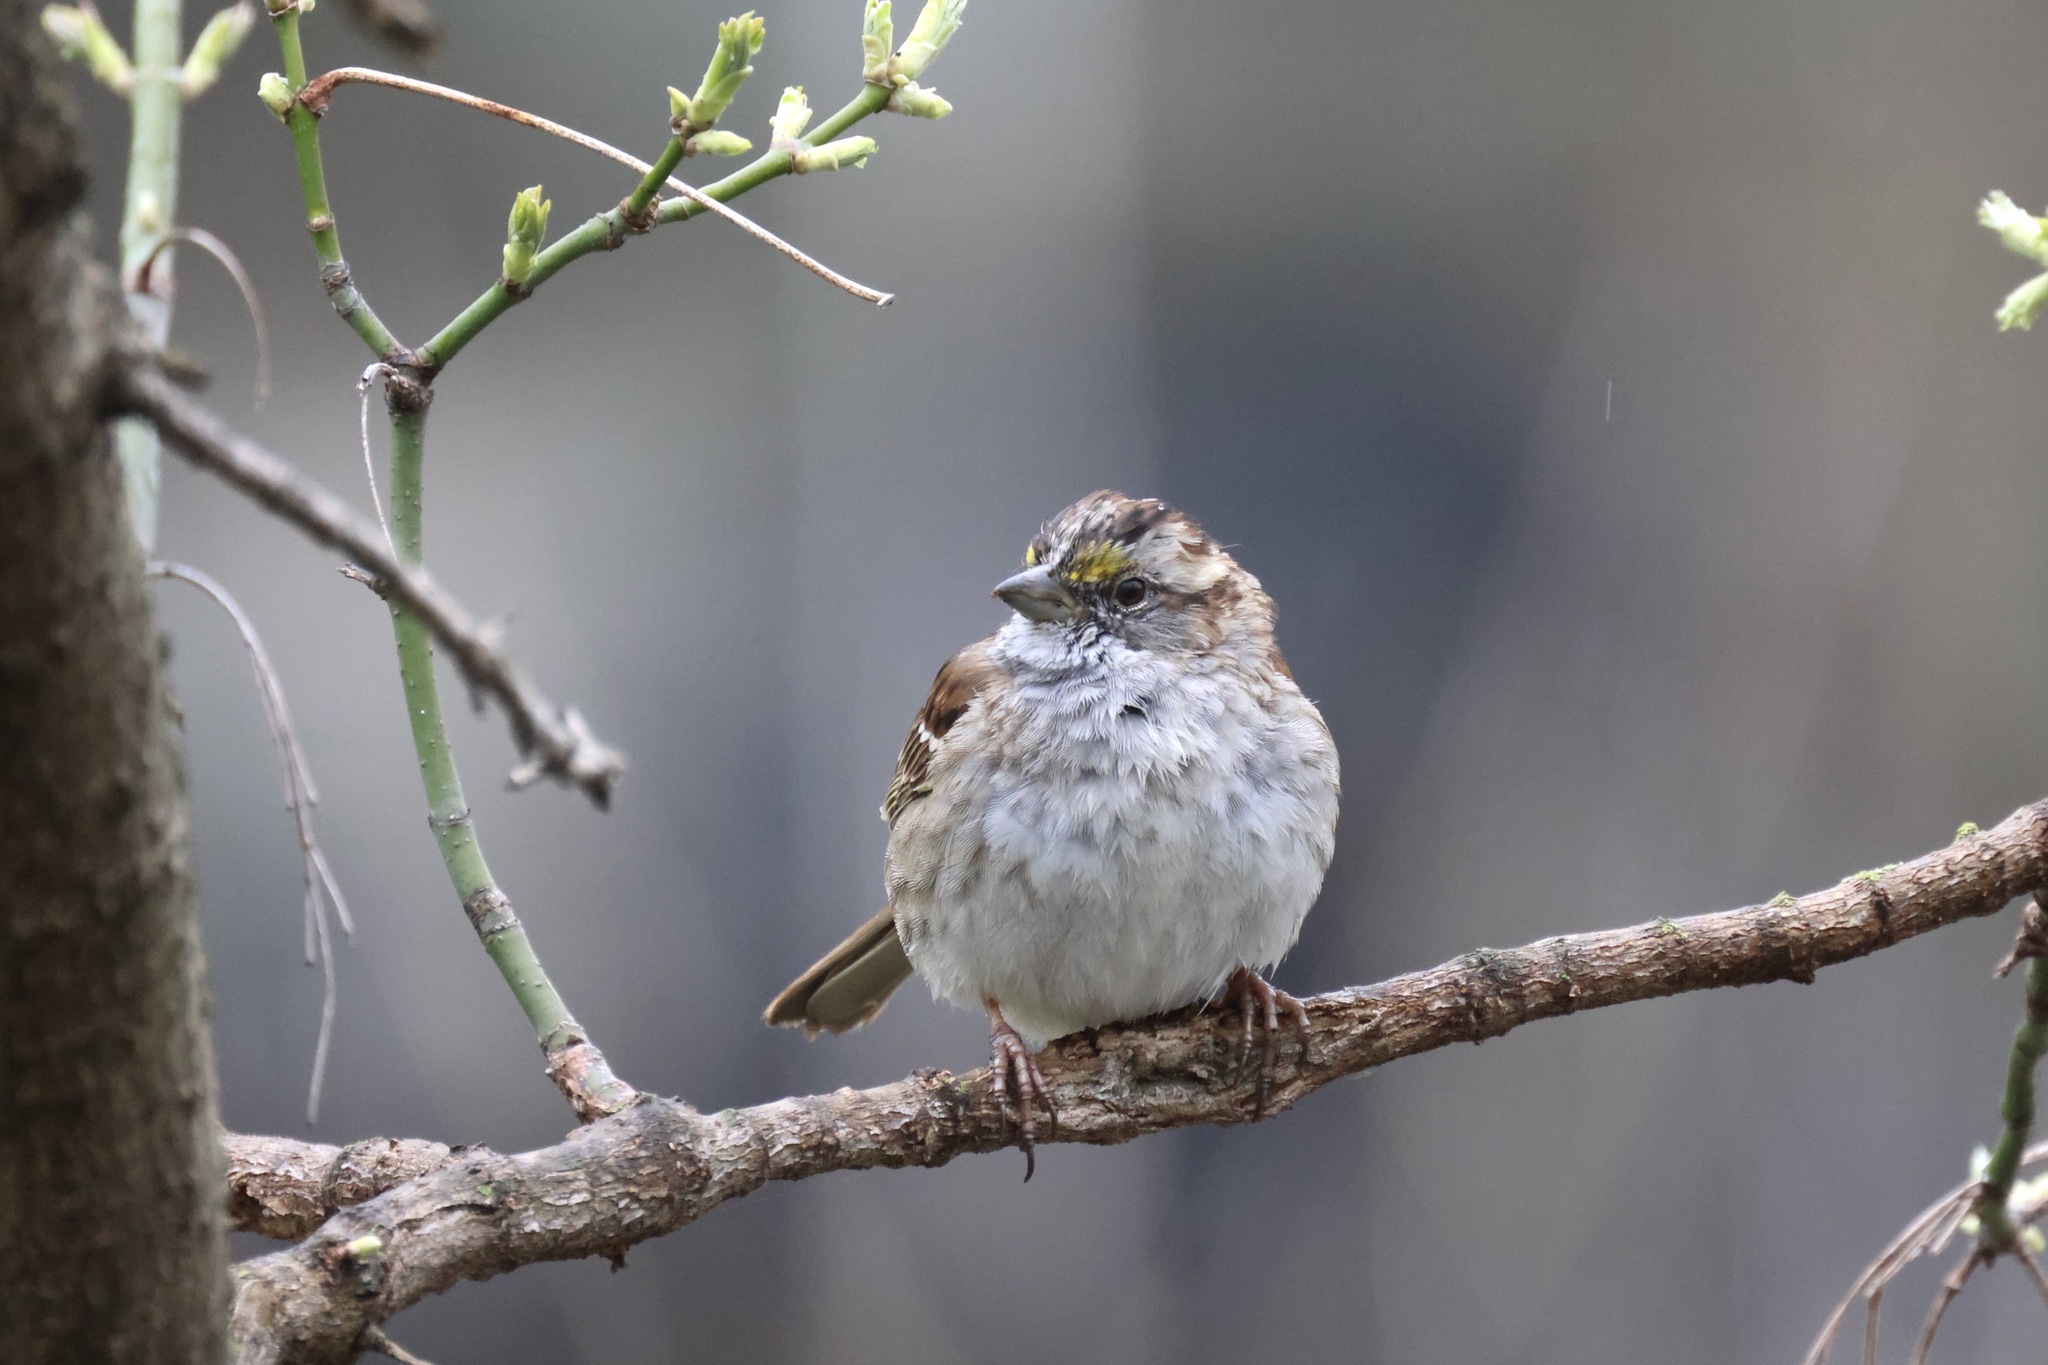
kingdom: Animalia
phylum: Chordata
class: Aves
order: Passeriformes
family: Passerellidae
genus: Zonotrichia
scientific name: Zonotrichia albicollis
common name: White-throated sparrow
